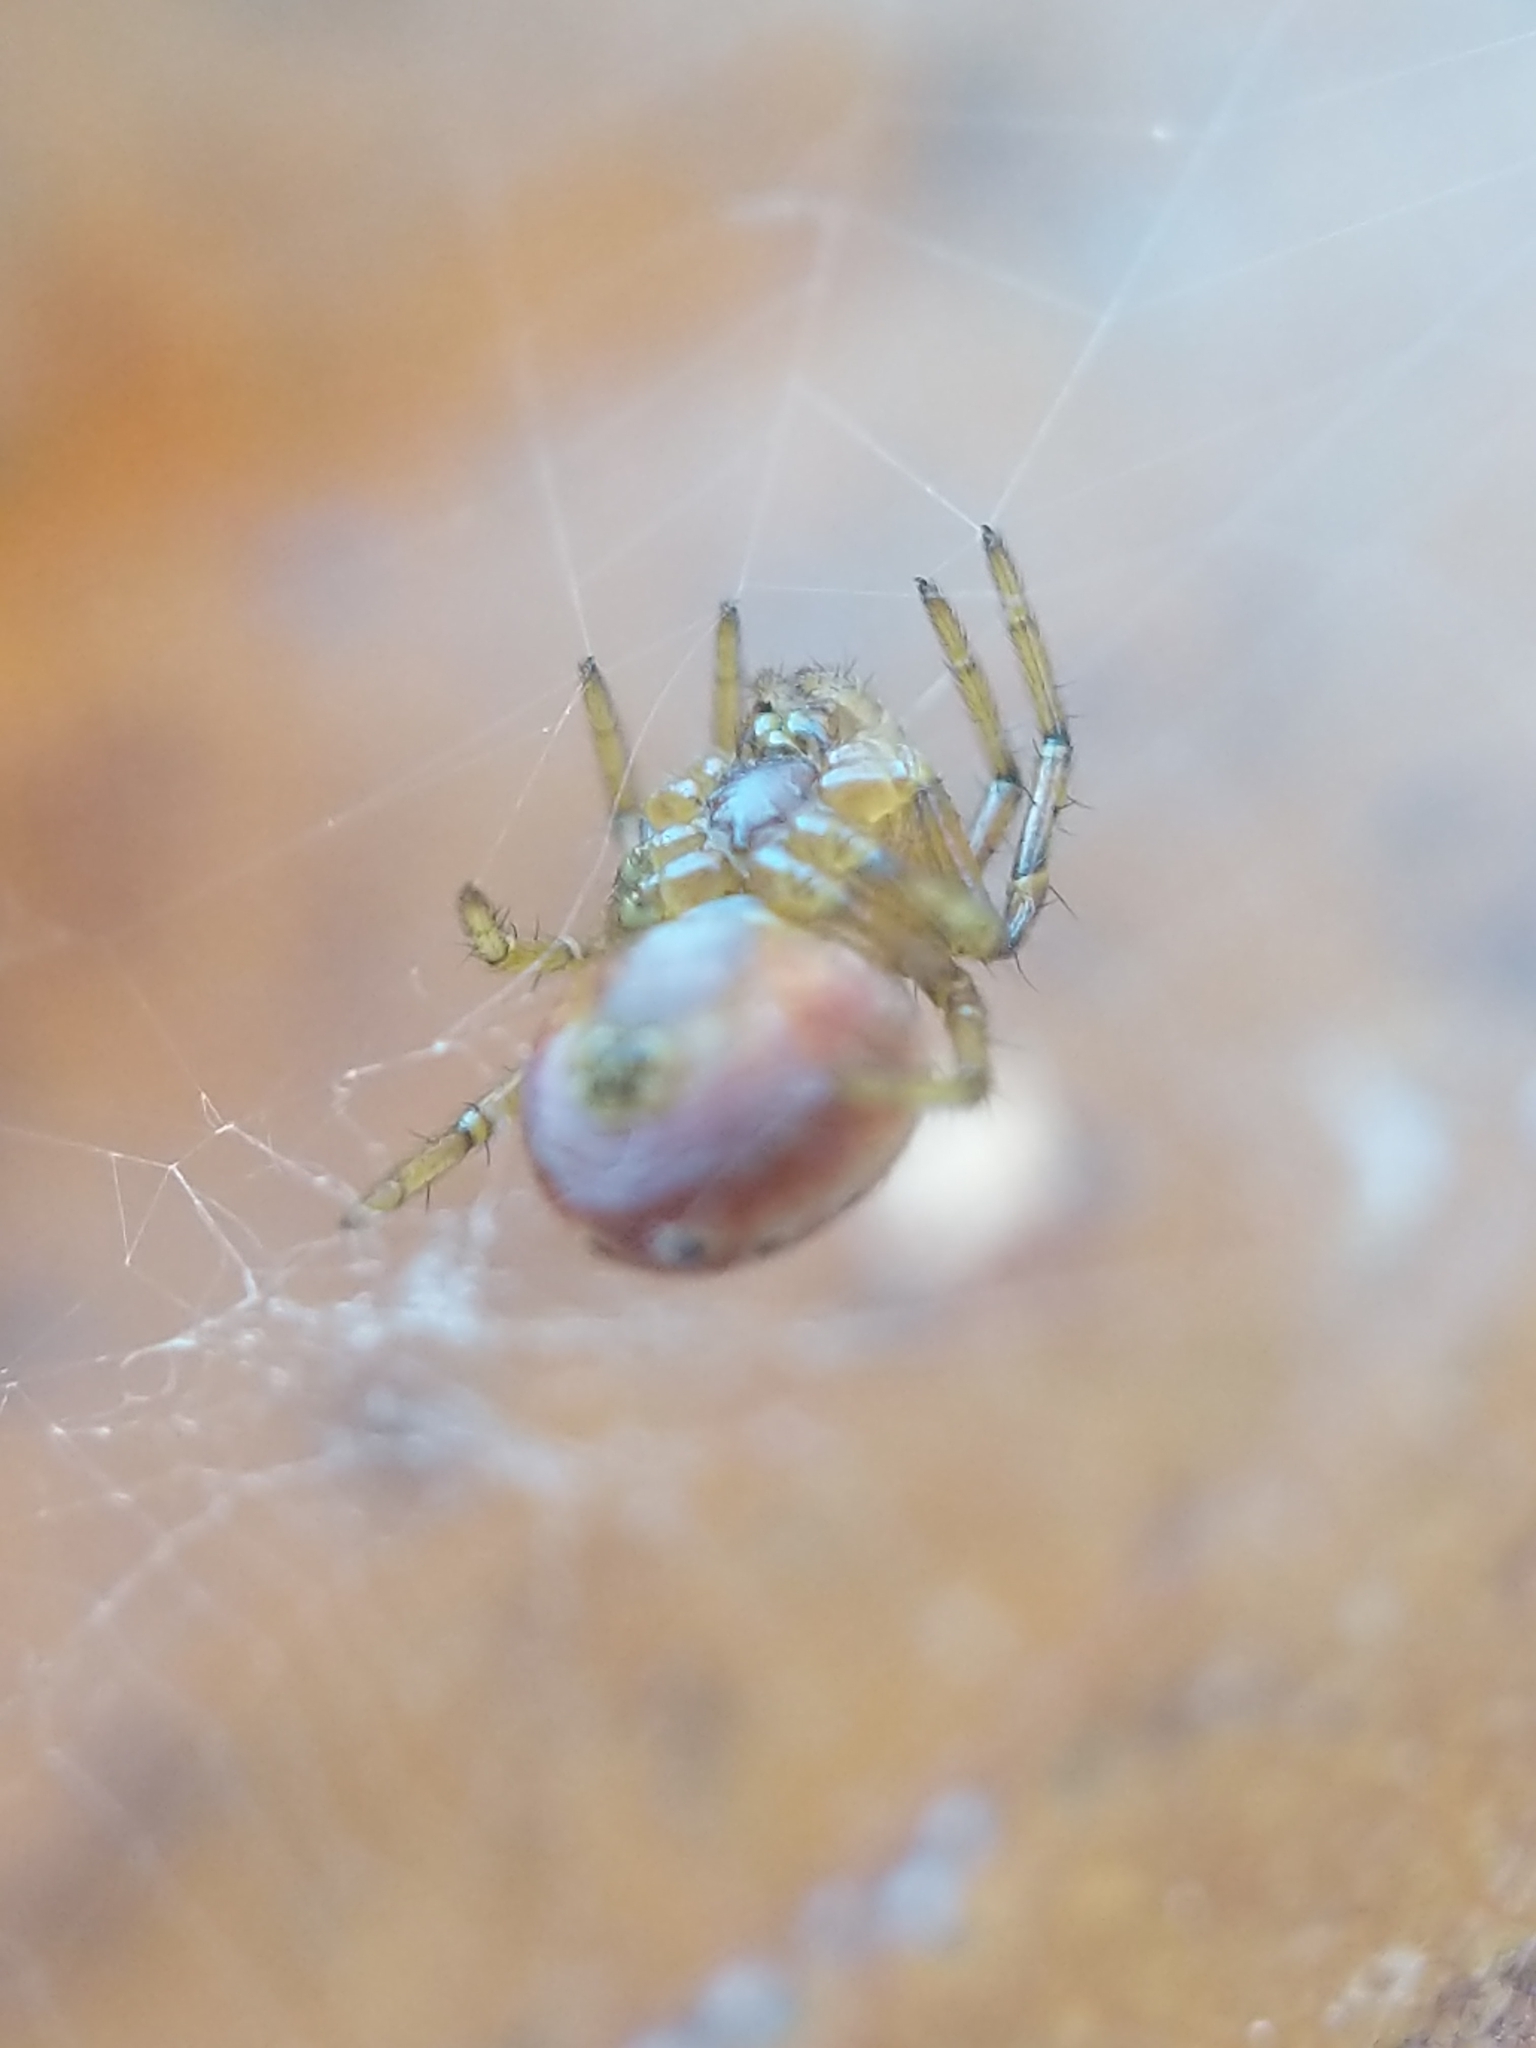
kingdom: Animalia
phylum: Arthropoda
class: Arachnida
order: Araneae
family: Araneidae
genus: Araniella
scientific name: Araniella displicata
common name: Sixspotted orb weaver
